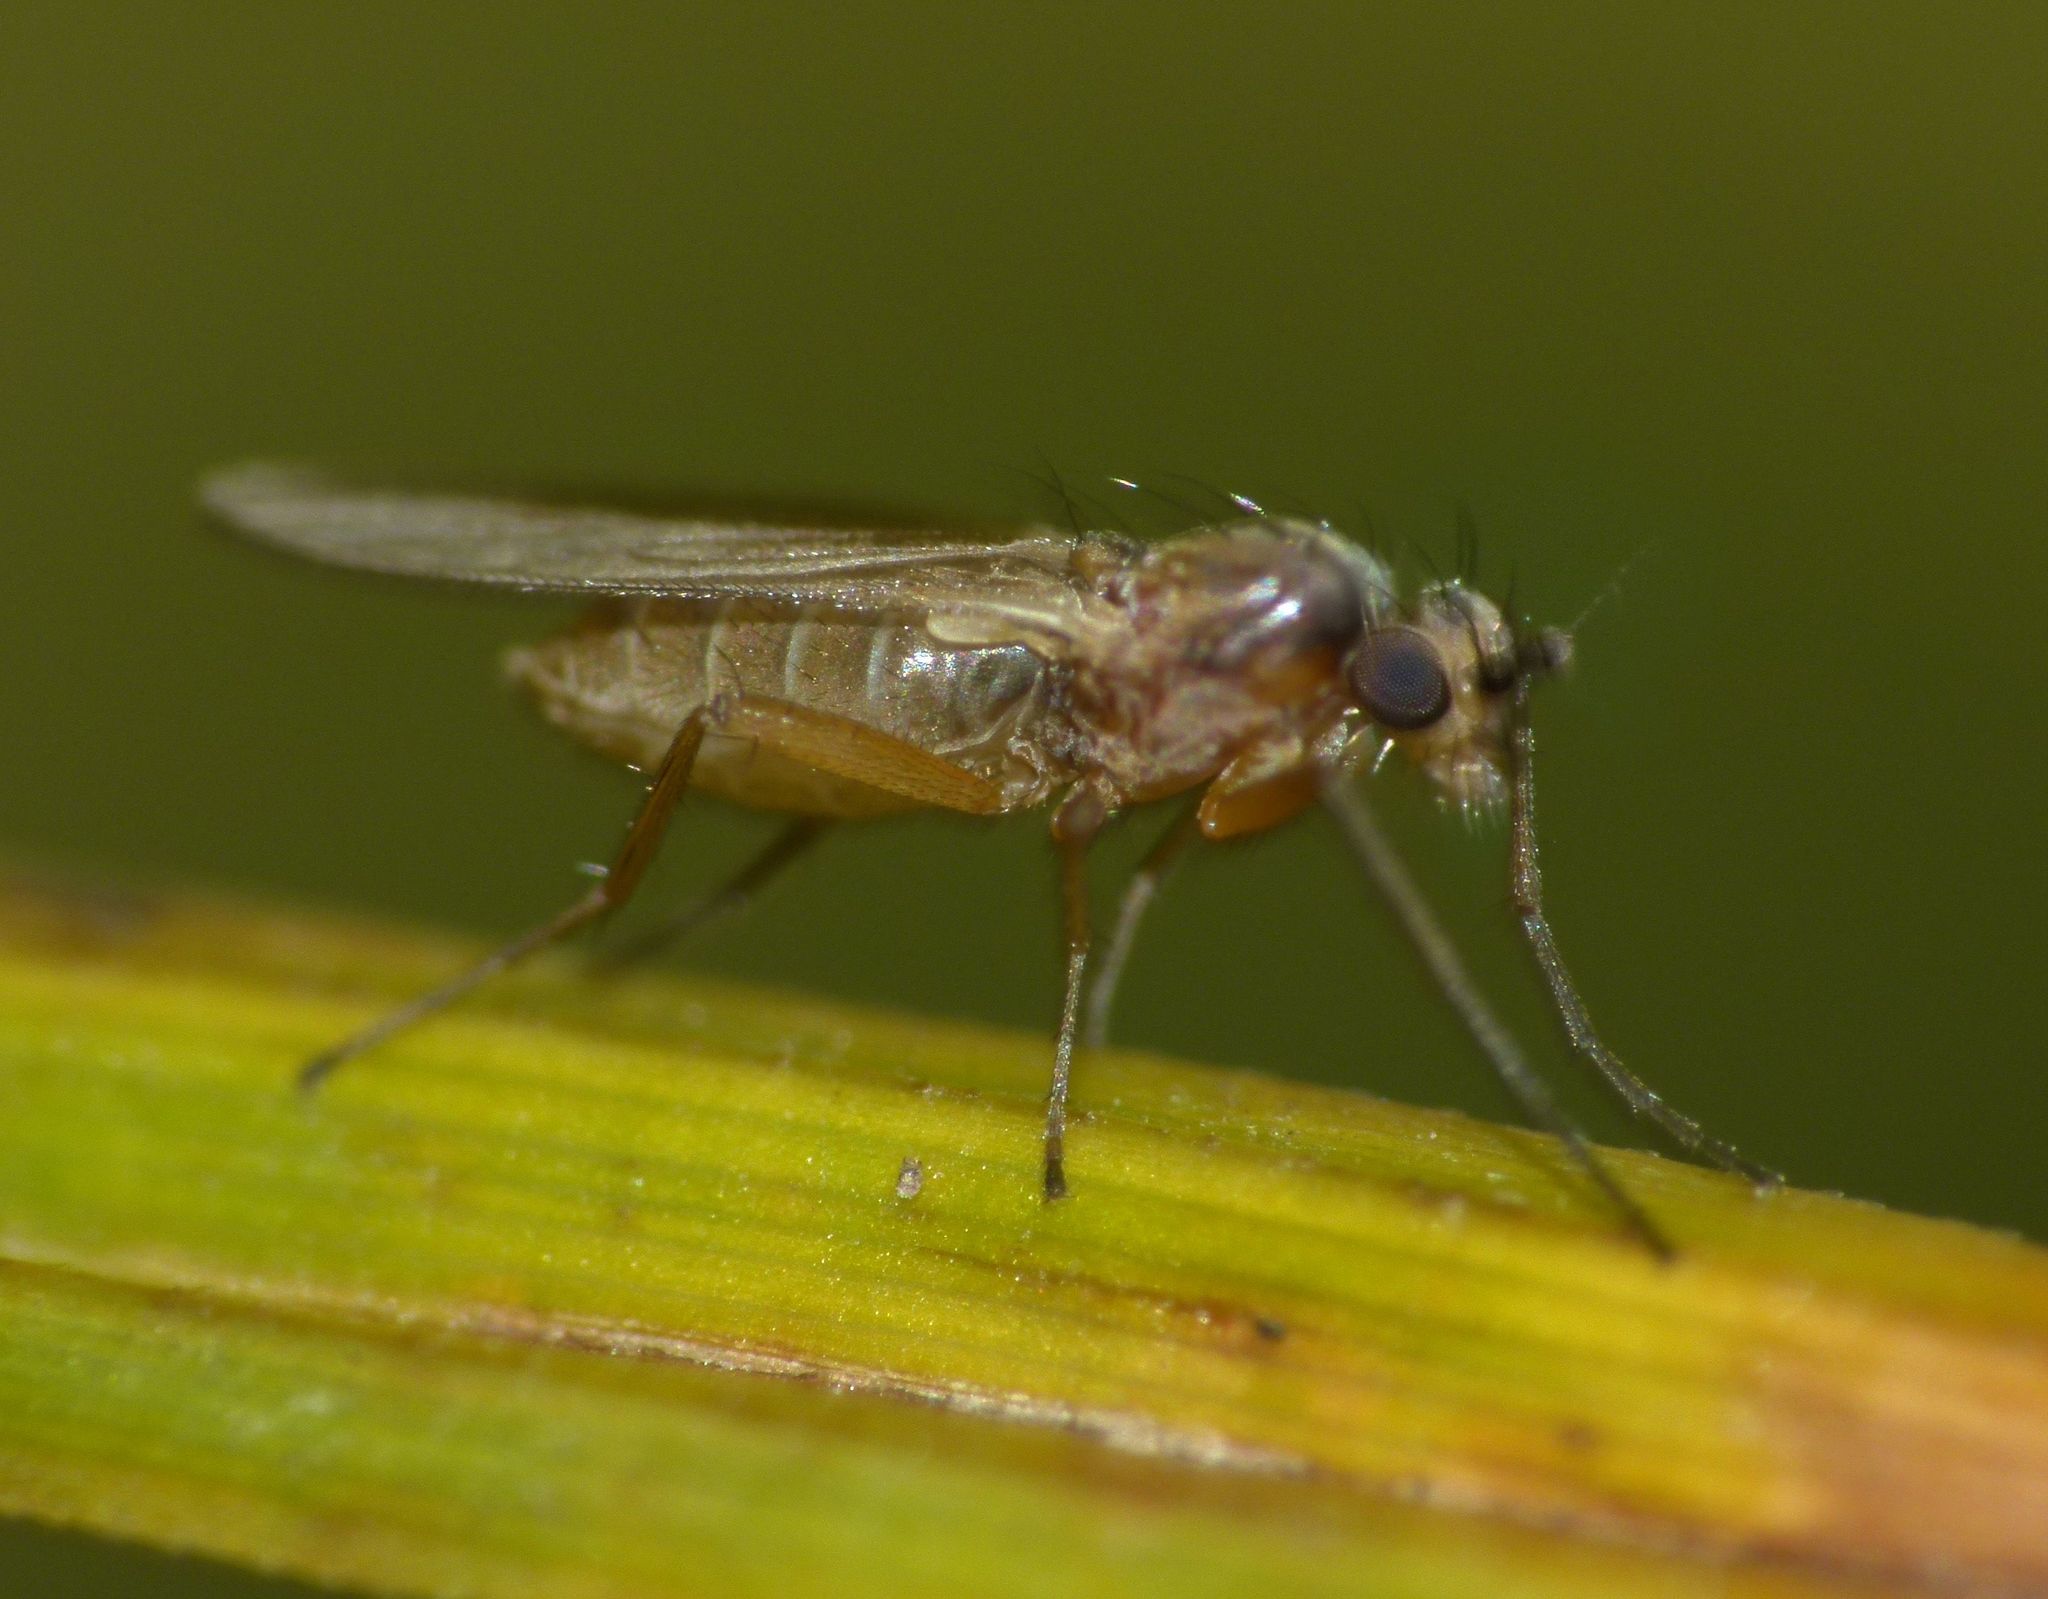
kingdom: Animalia
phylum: Arthropoda
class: Insecta
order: Diptera
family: Lonchopteridae
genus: Lonchoptera
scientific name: Lonchoptera bifurcata
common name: Spear-winged fly
